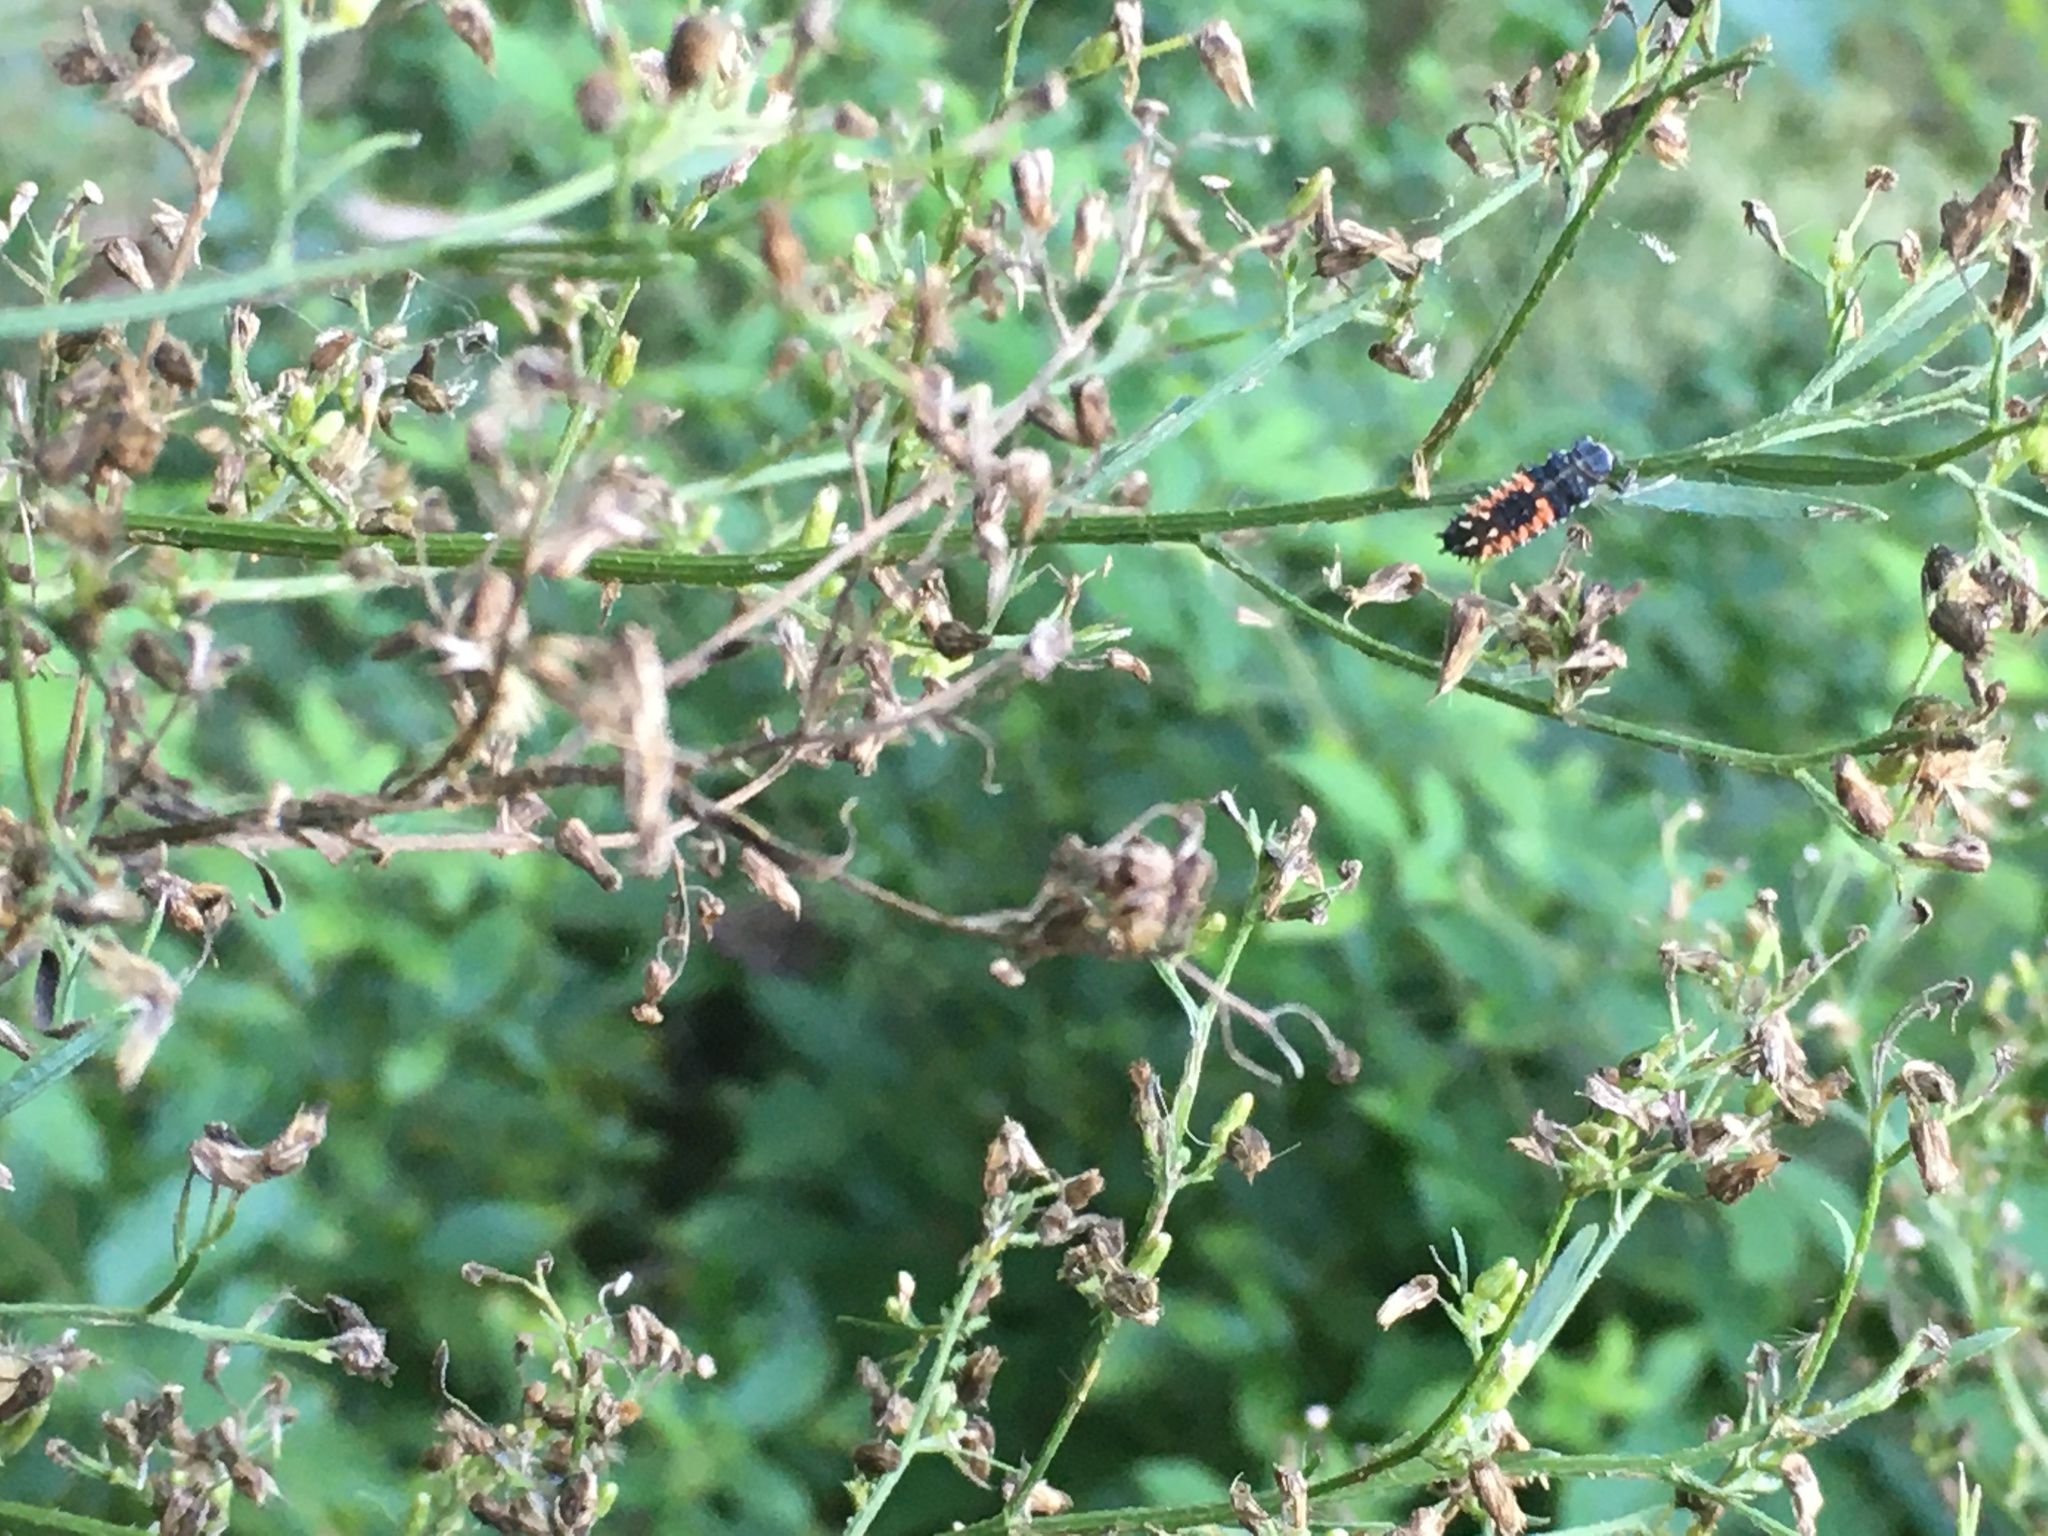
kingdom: Animalia
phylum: Arthropoda
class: Insecta
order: Coleoptera
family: Coccinellidae
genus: Harmonia
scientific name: Harmonia axyridis
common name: Harlequin ladybird
